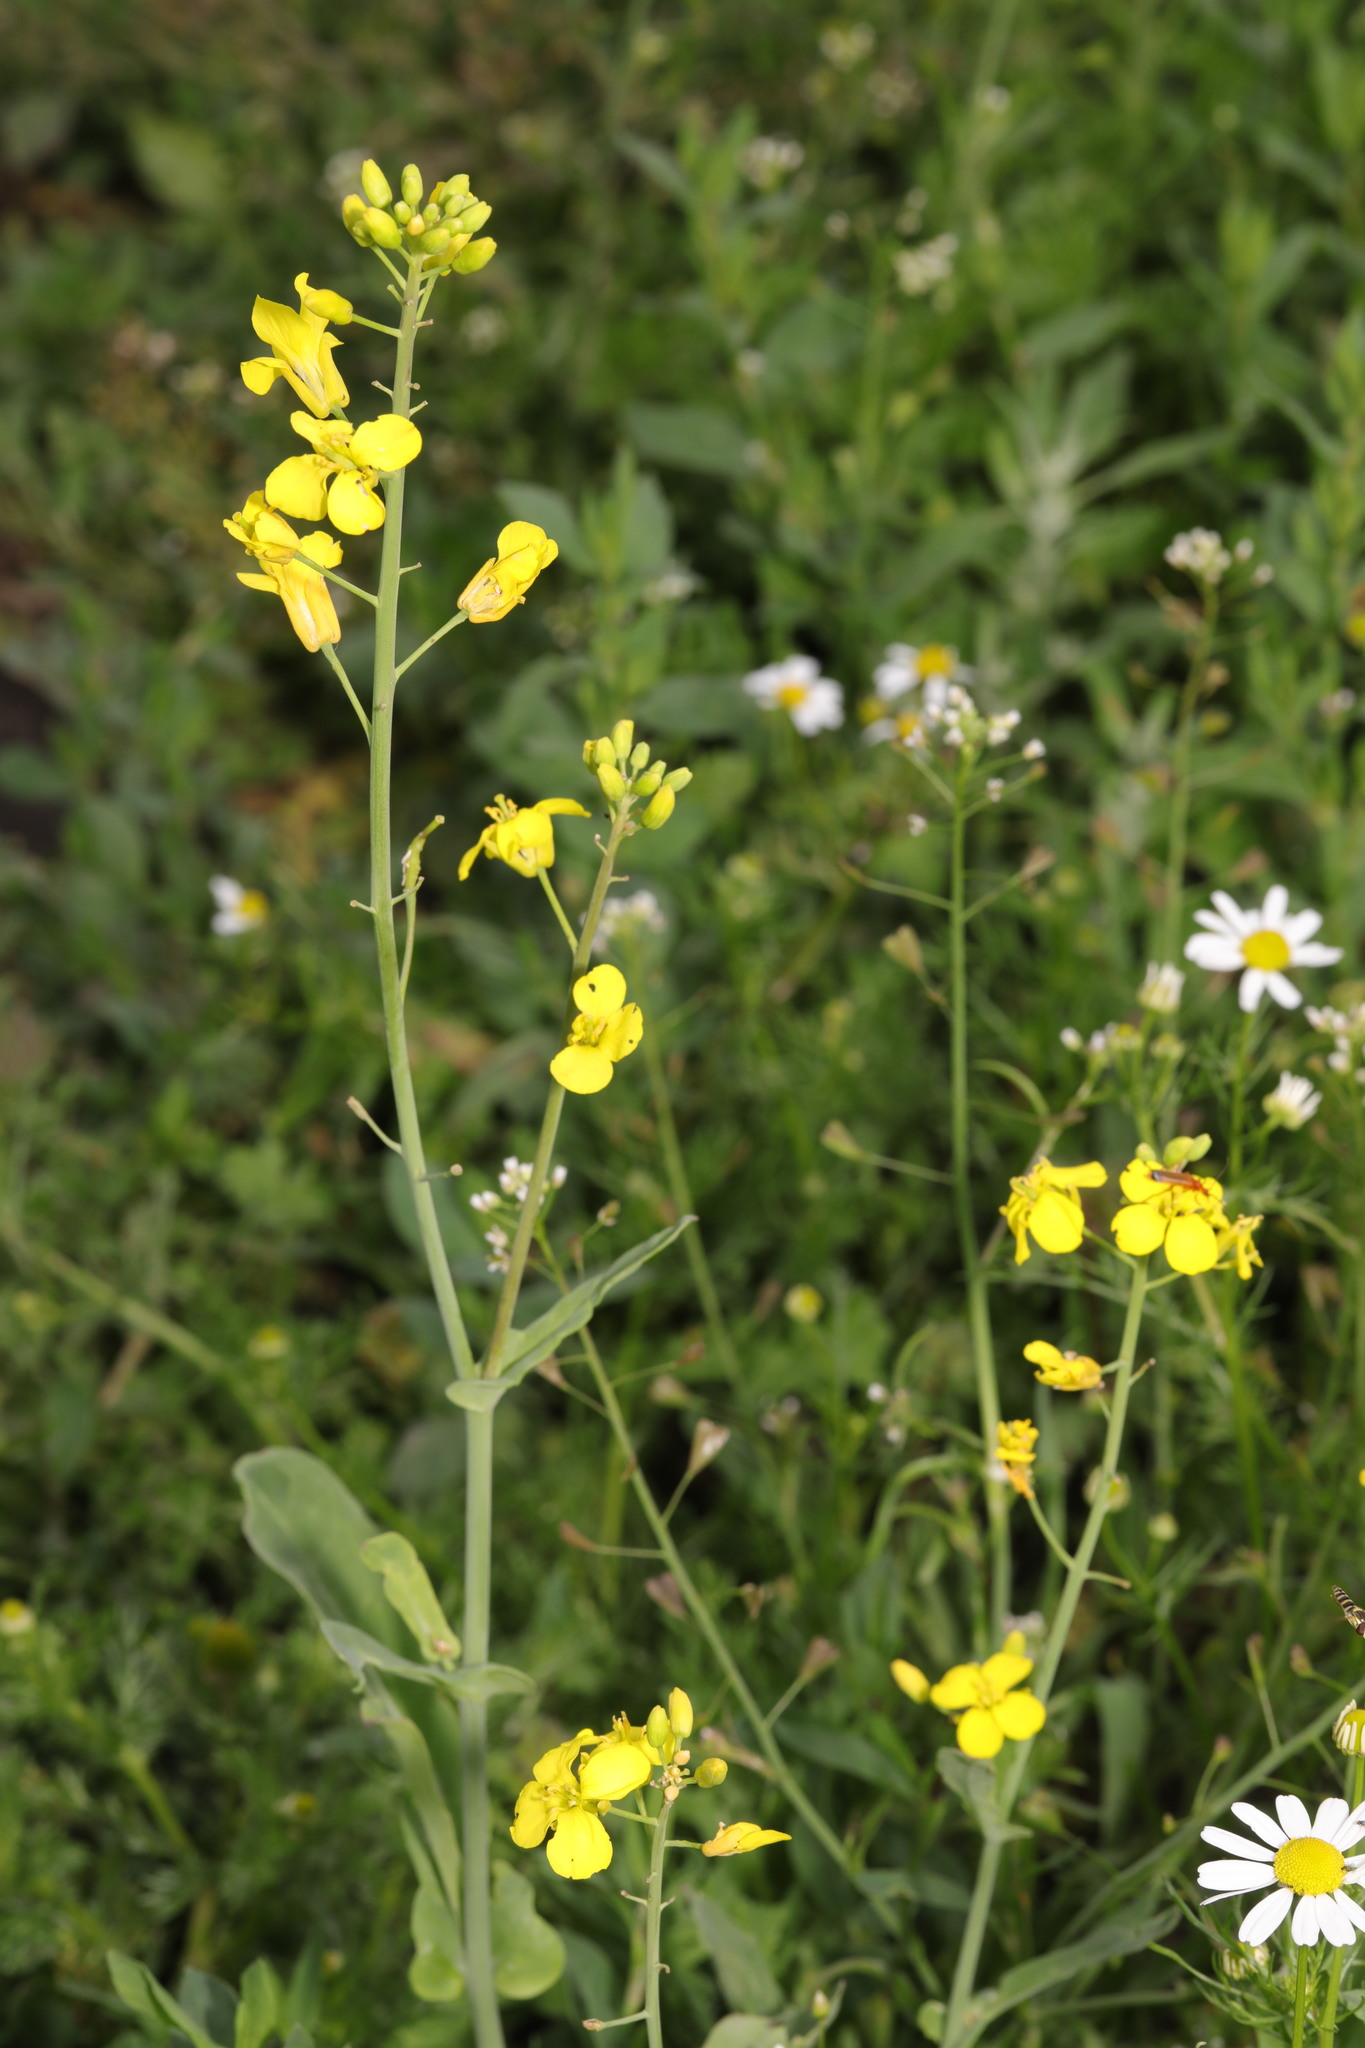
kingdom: Plantae
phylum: Tracheophyta
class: Magnoliopsida
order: Brassicales
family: Brassicaceae
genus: Brassica
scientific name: Brassica napus
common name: Rape
